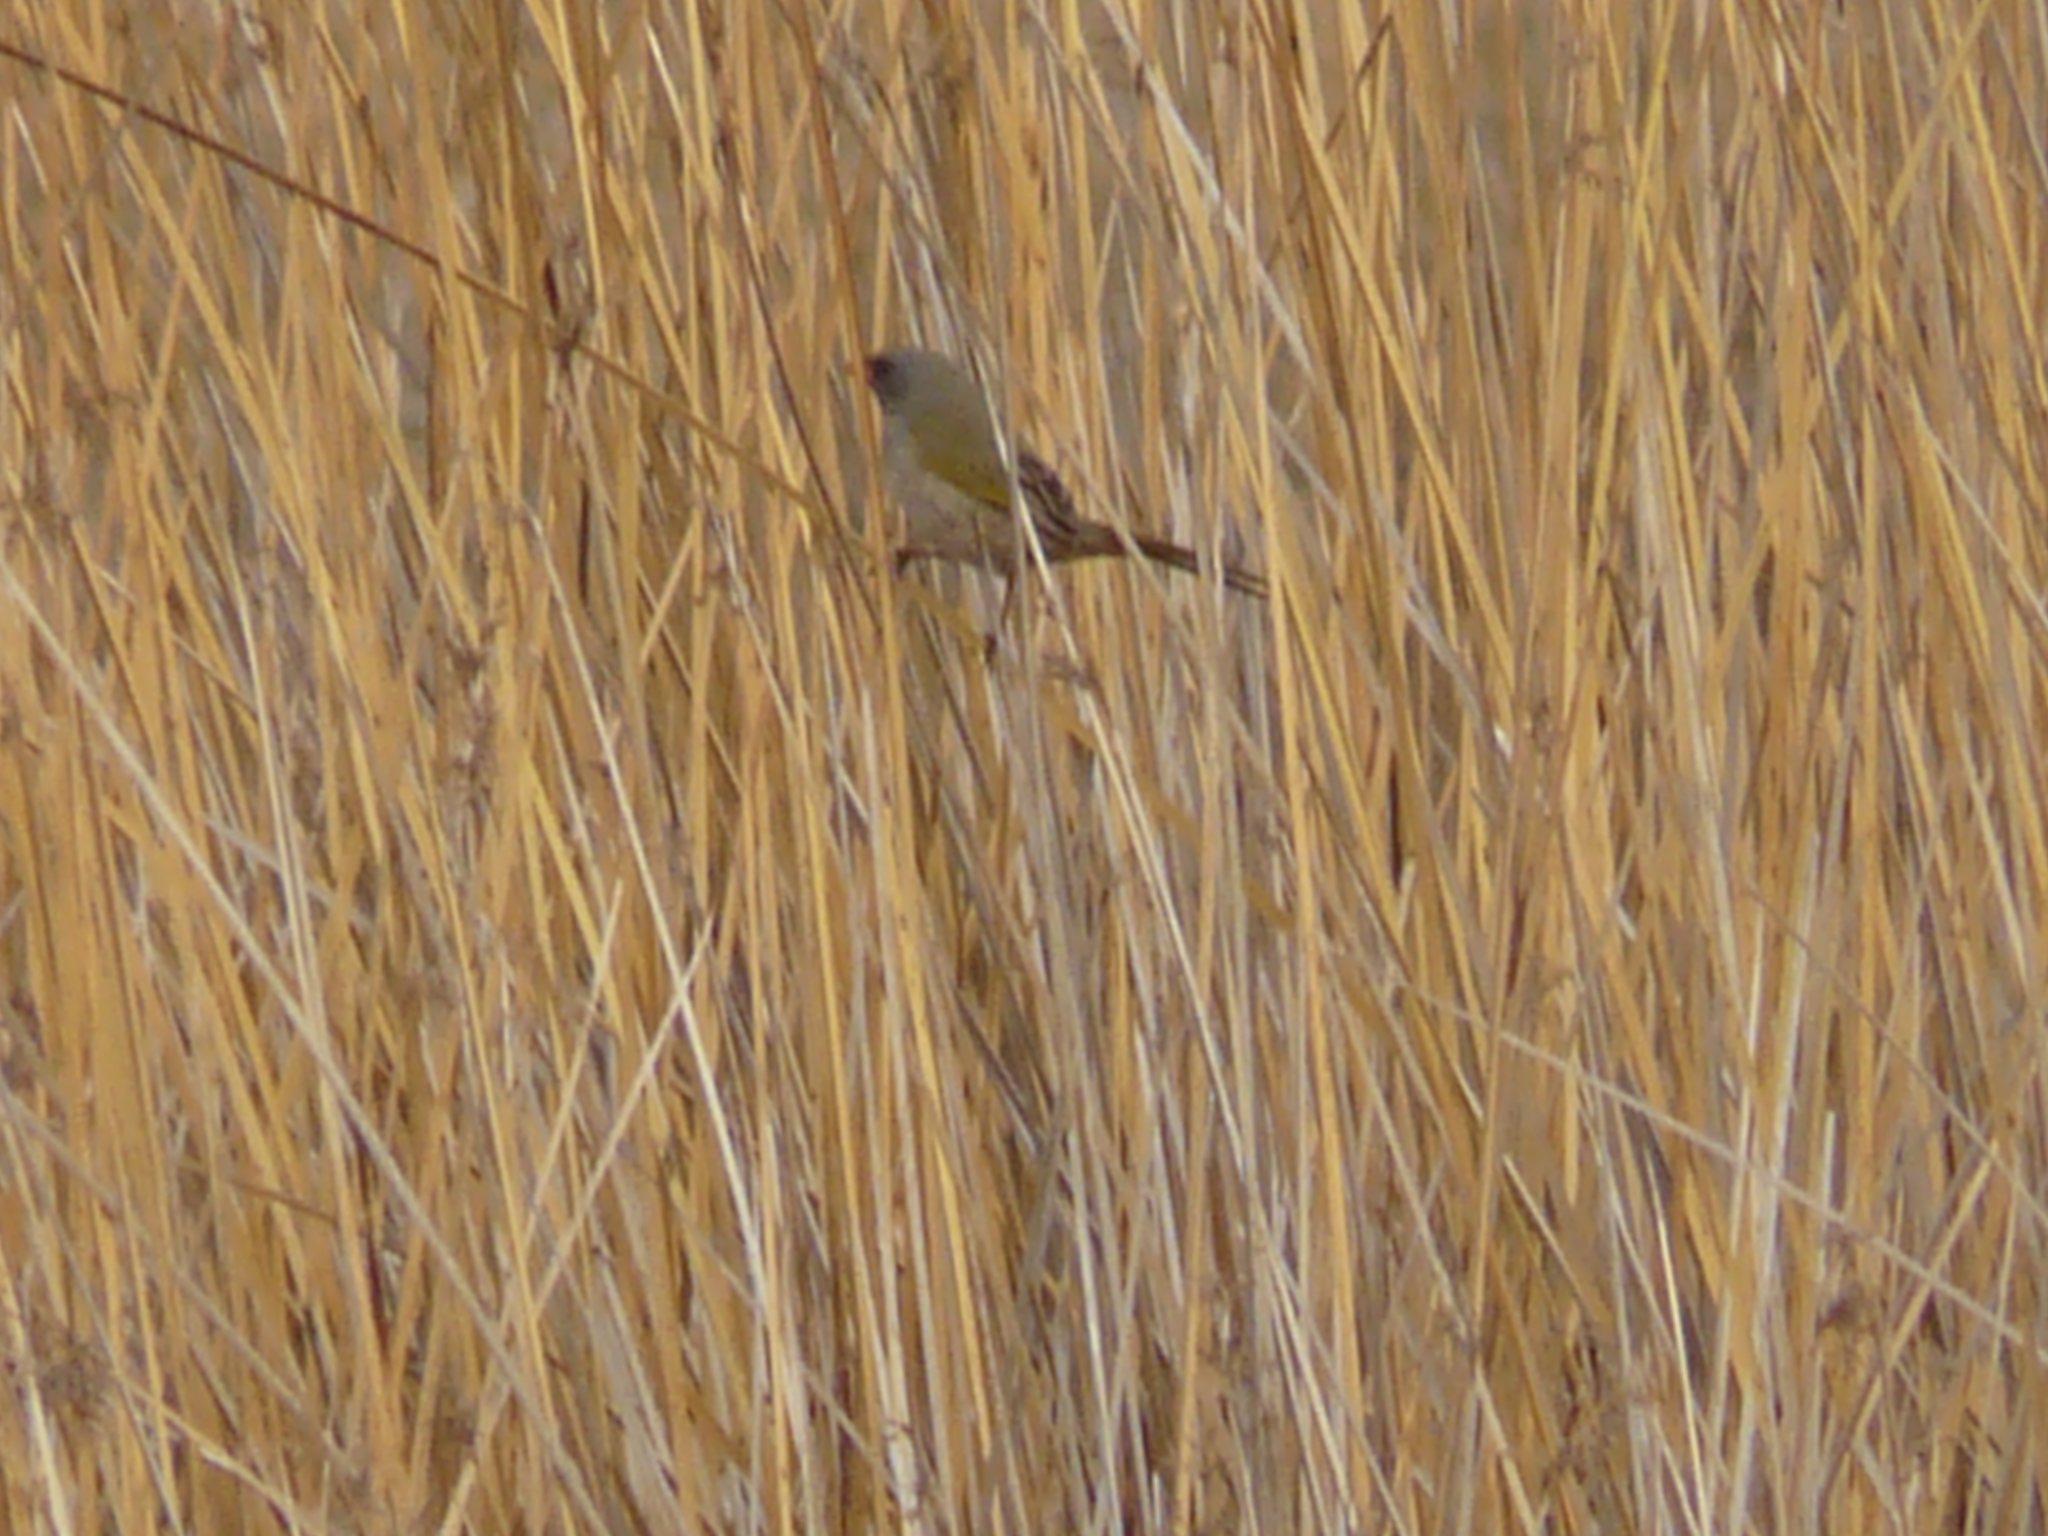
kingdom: Animalia
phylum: Chordata
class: Aves
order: Passeriformes
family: Thraupidae
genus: Embernagra
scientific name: Embernagra platensis
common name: Pampa finch
